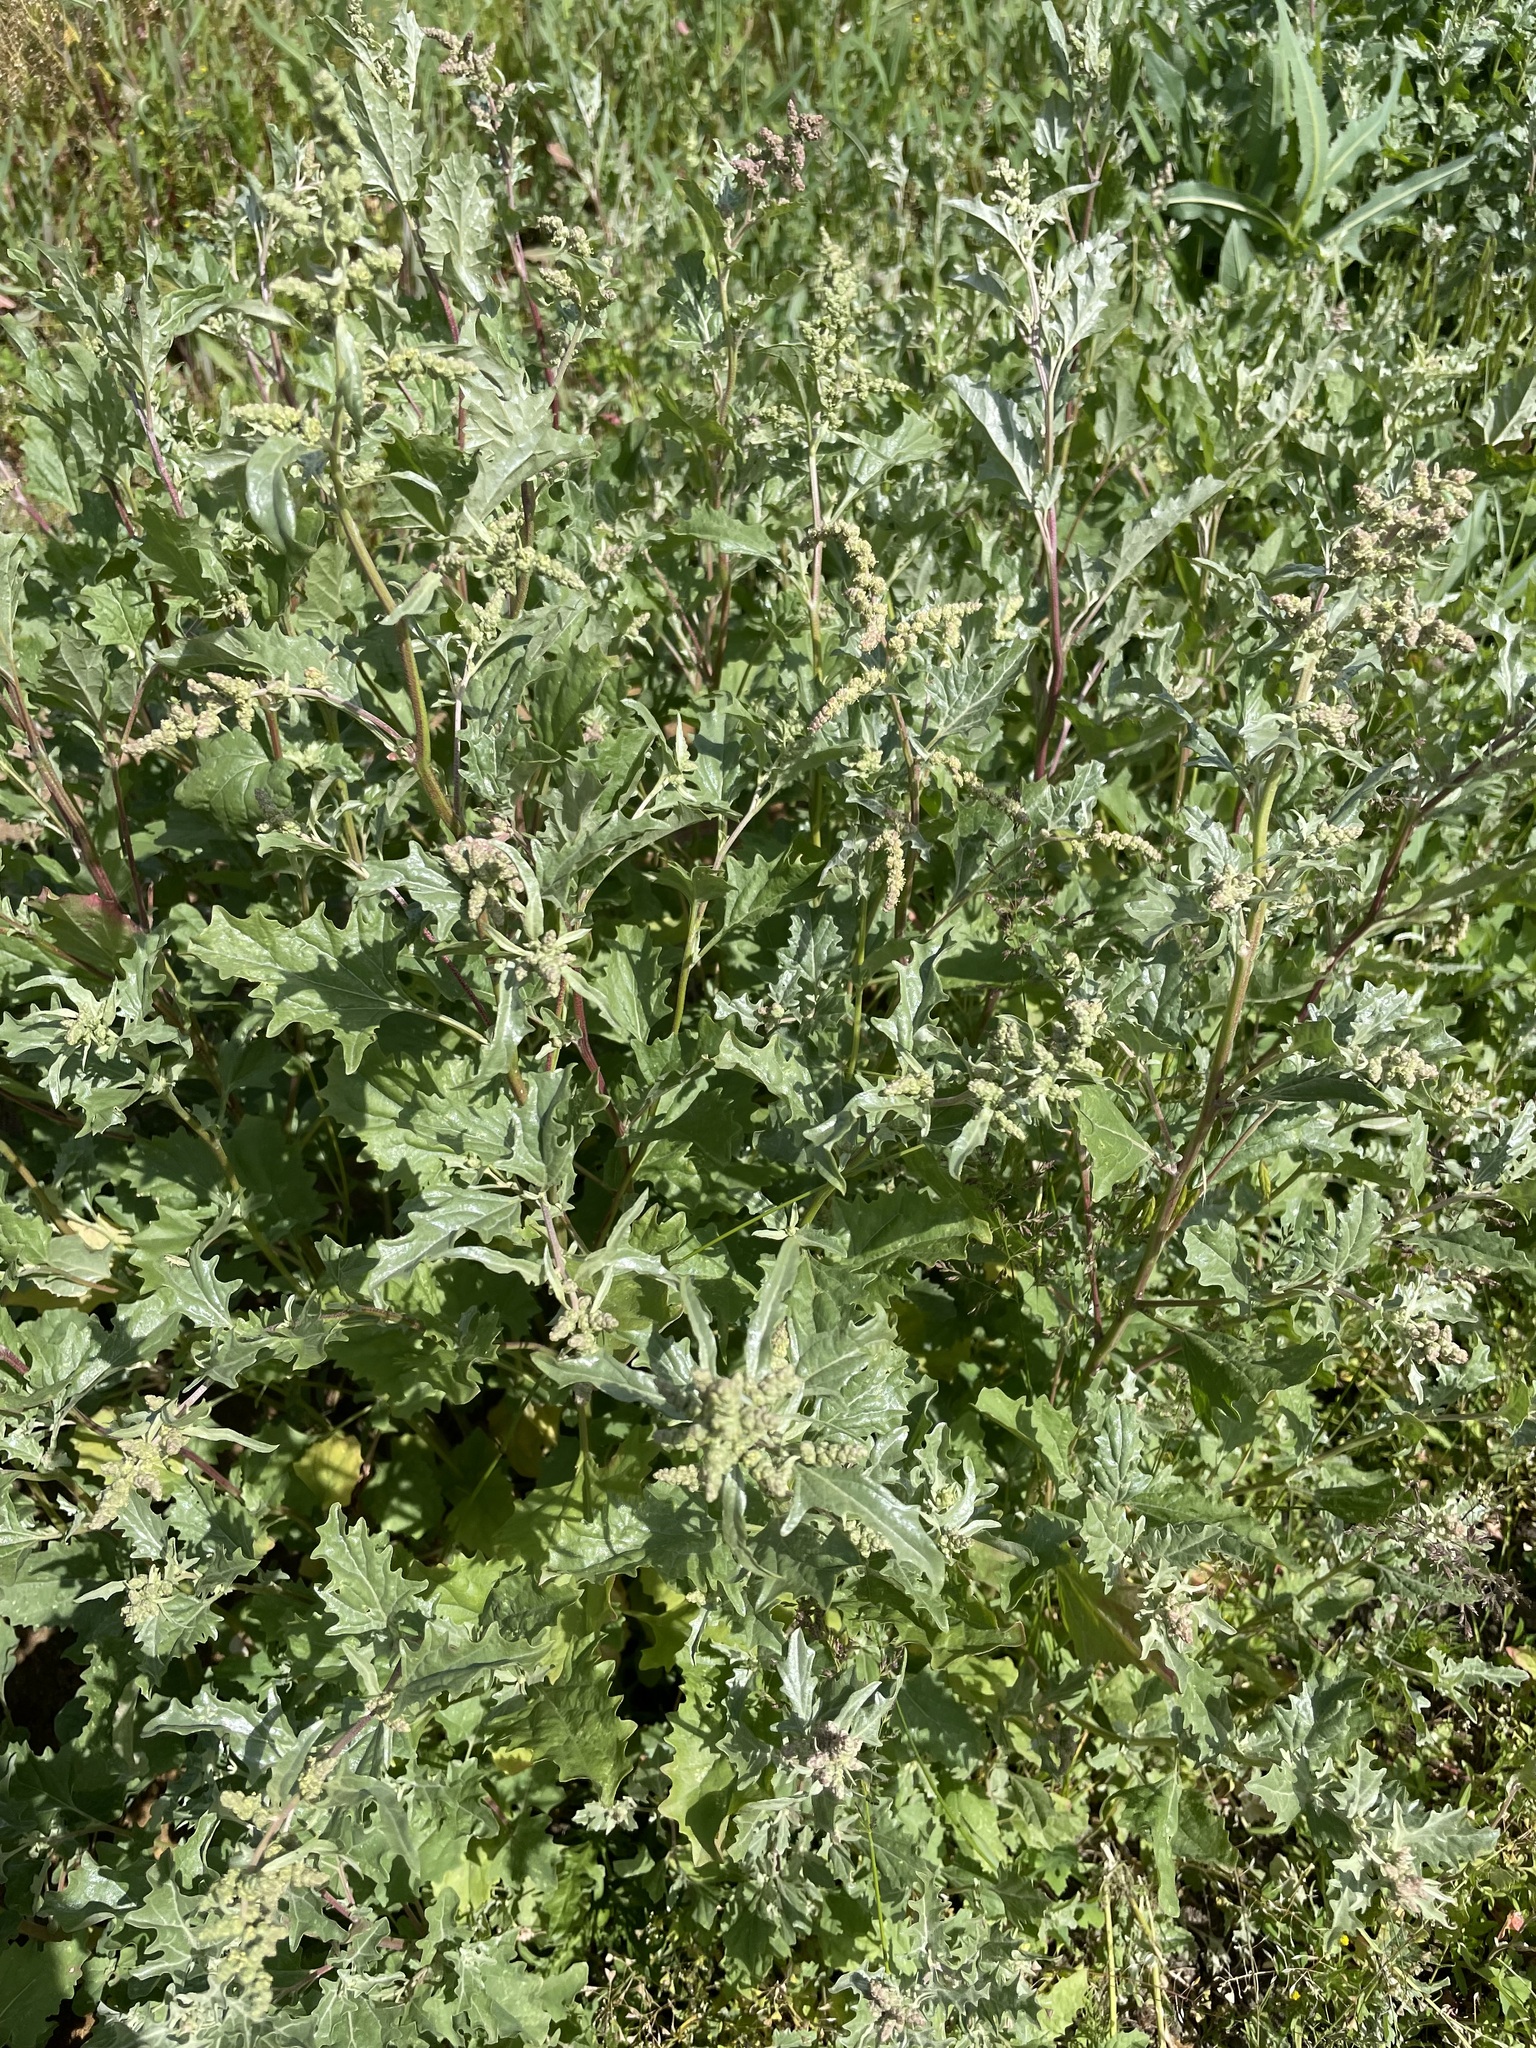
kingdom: Plantae
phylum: Tracheophyta
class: Magnoliopsida
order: Caryophyllales
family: Amaranthaceae
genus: Atriplex
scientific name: Atriplex tatarica
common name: Tatarian orache
